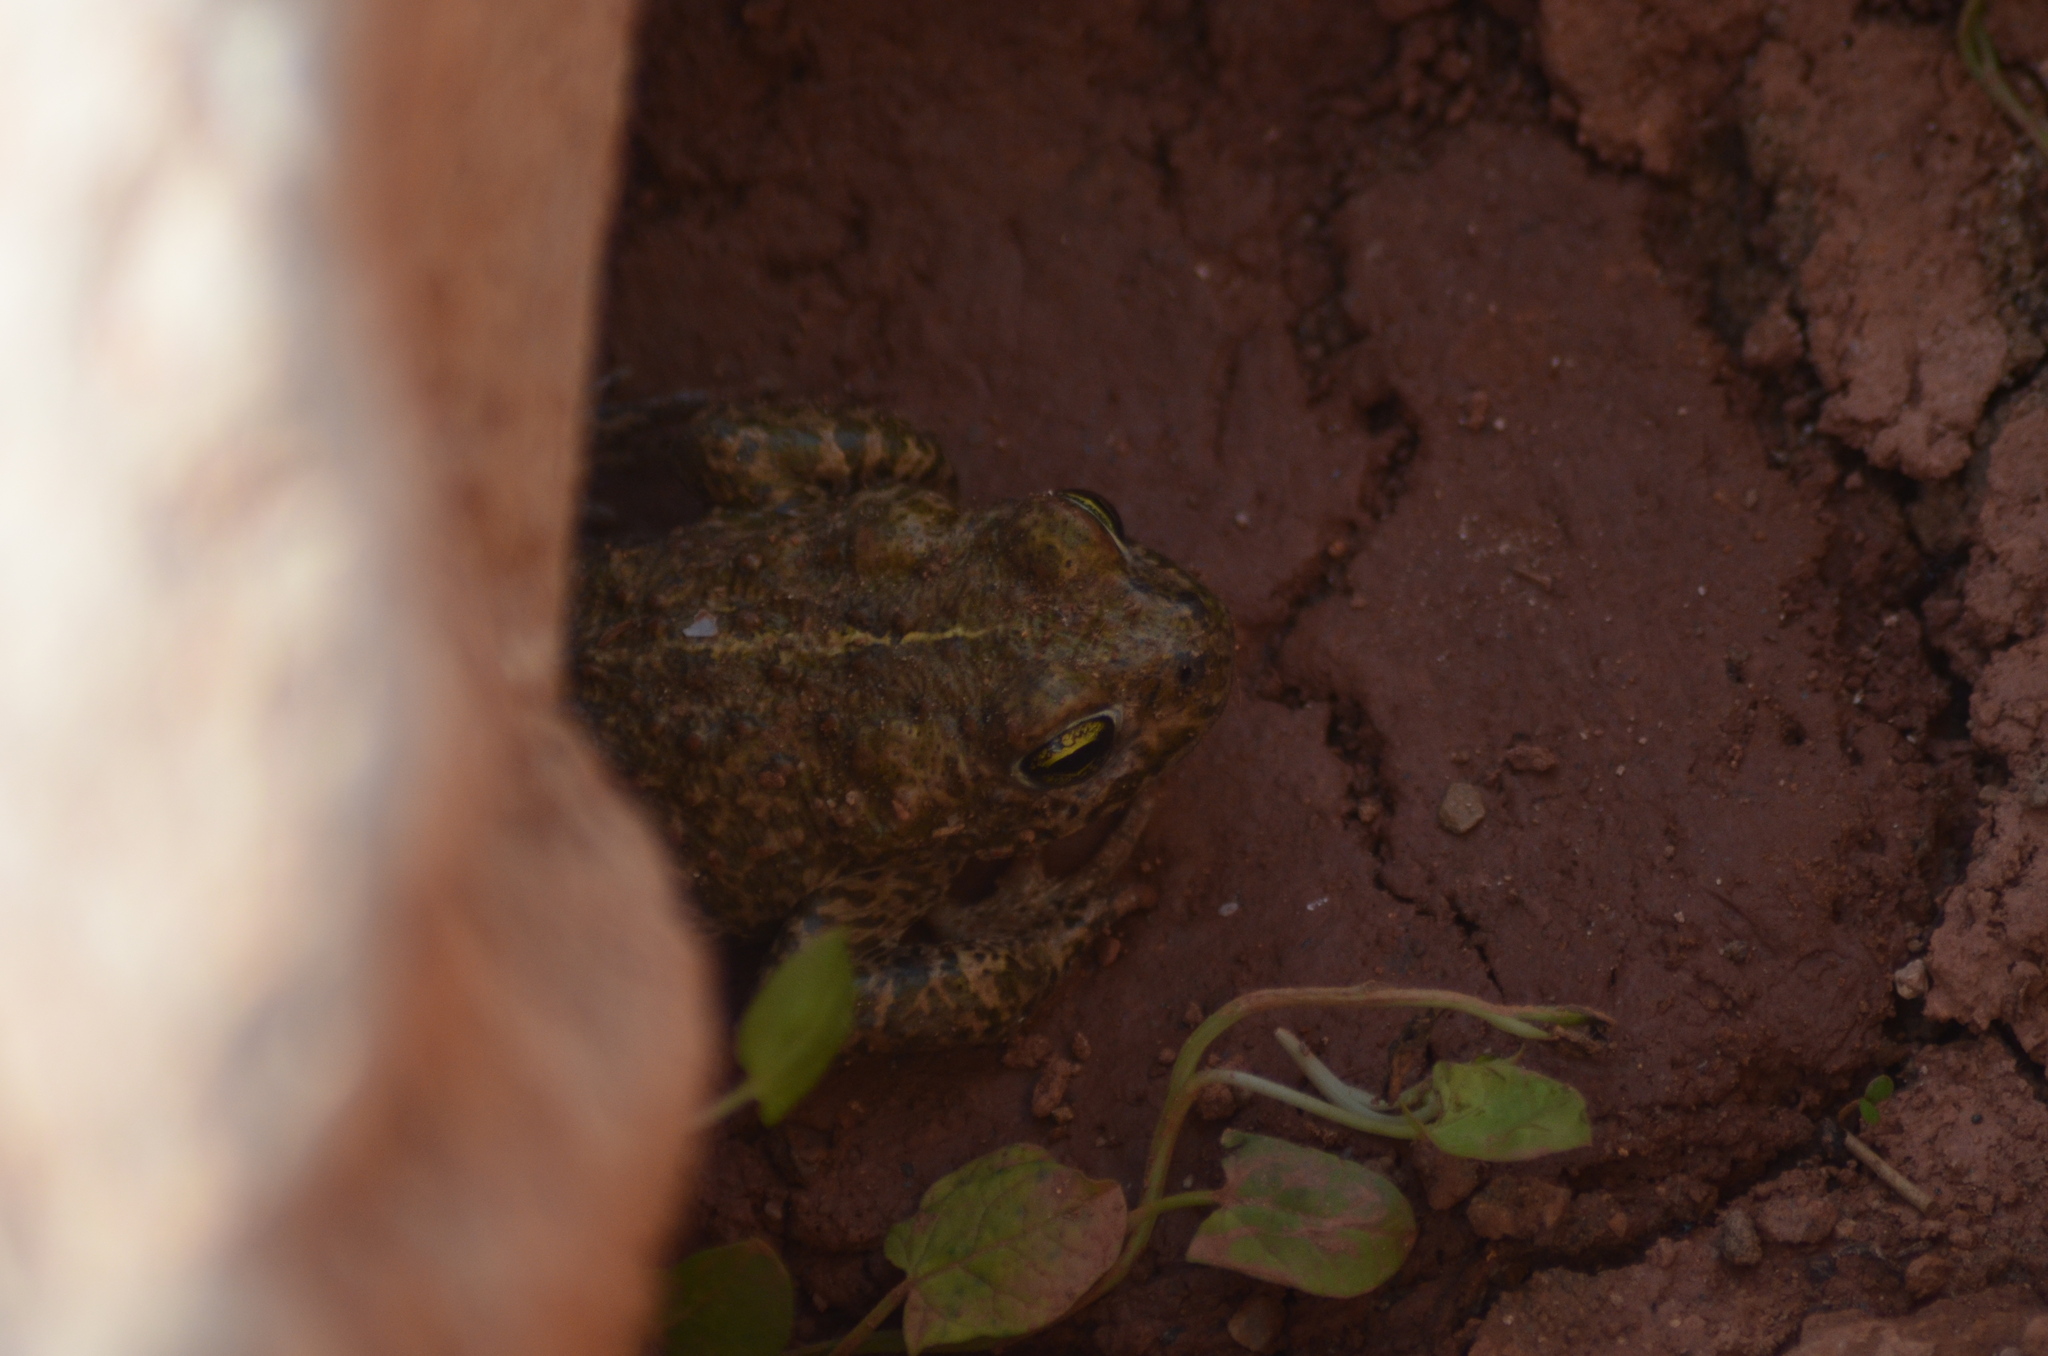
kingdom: Animalia
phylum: Chordata
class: Amphibia
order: Anura
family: Bufonidae
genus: Epidalea
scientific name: Epidalea calamita
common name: Natterjack toad
